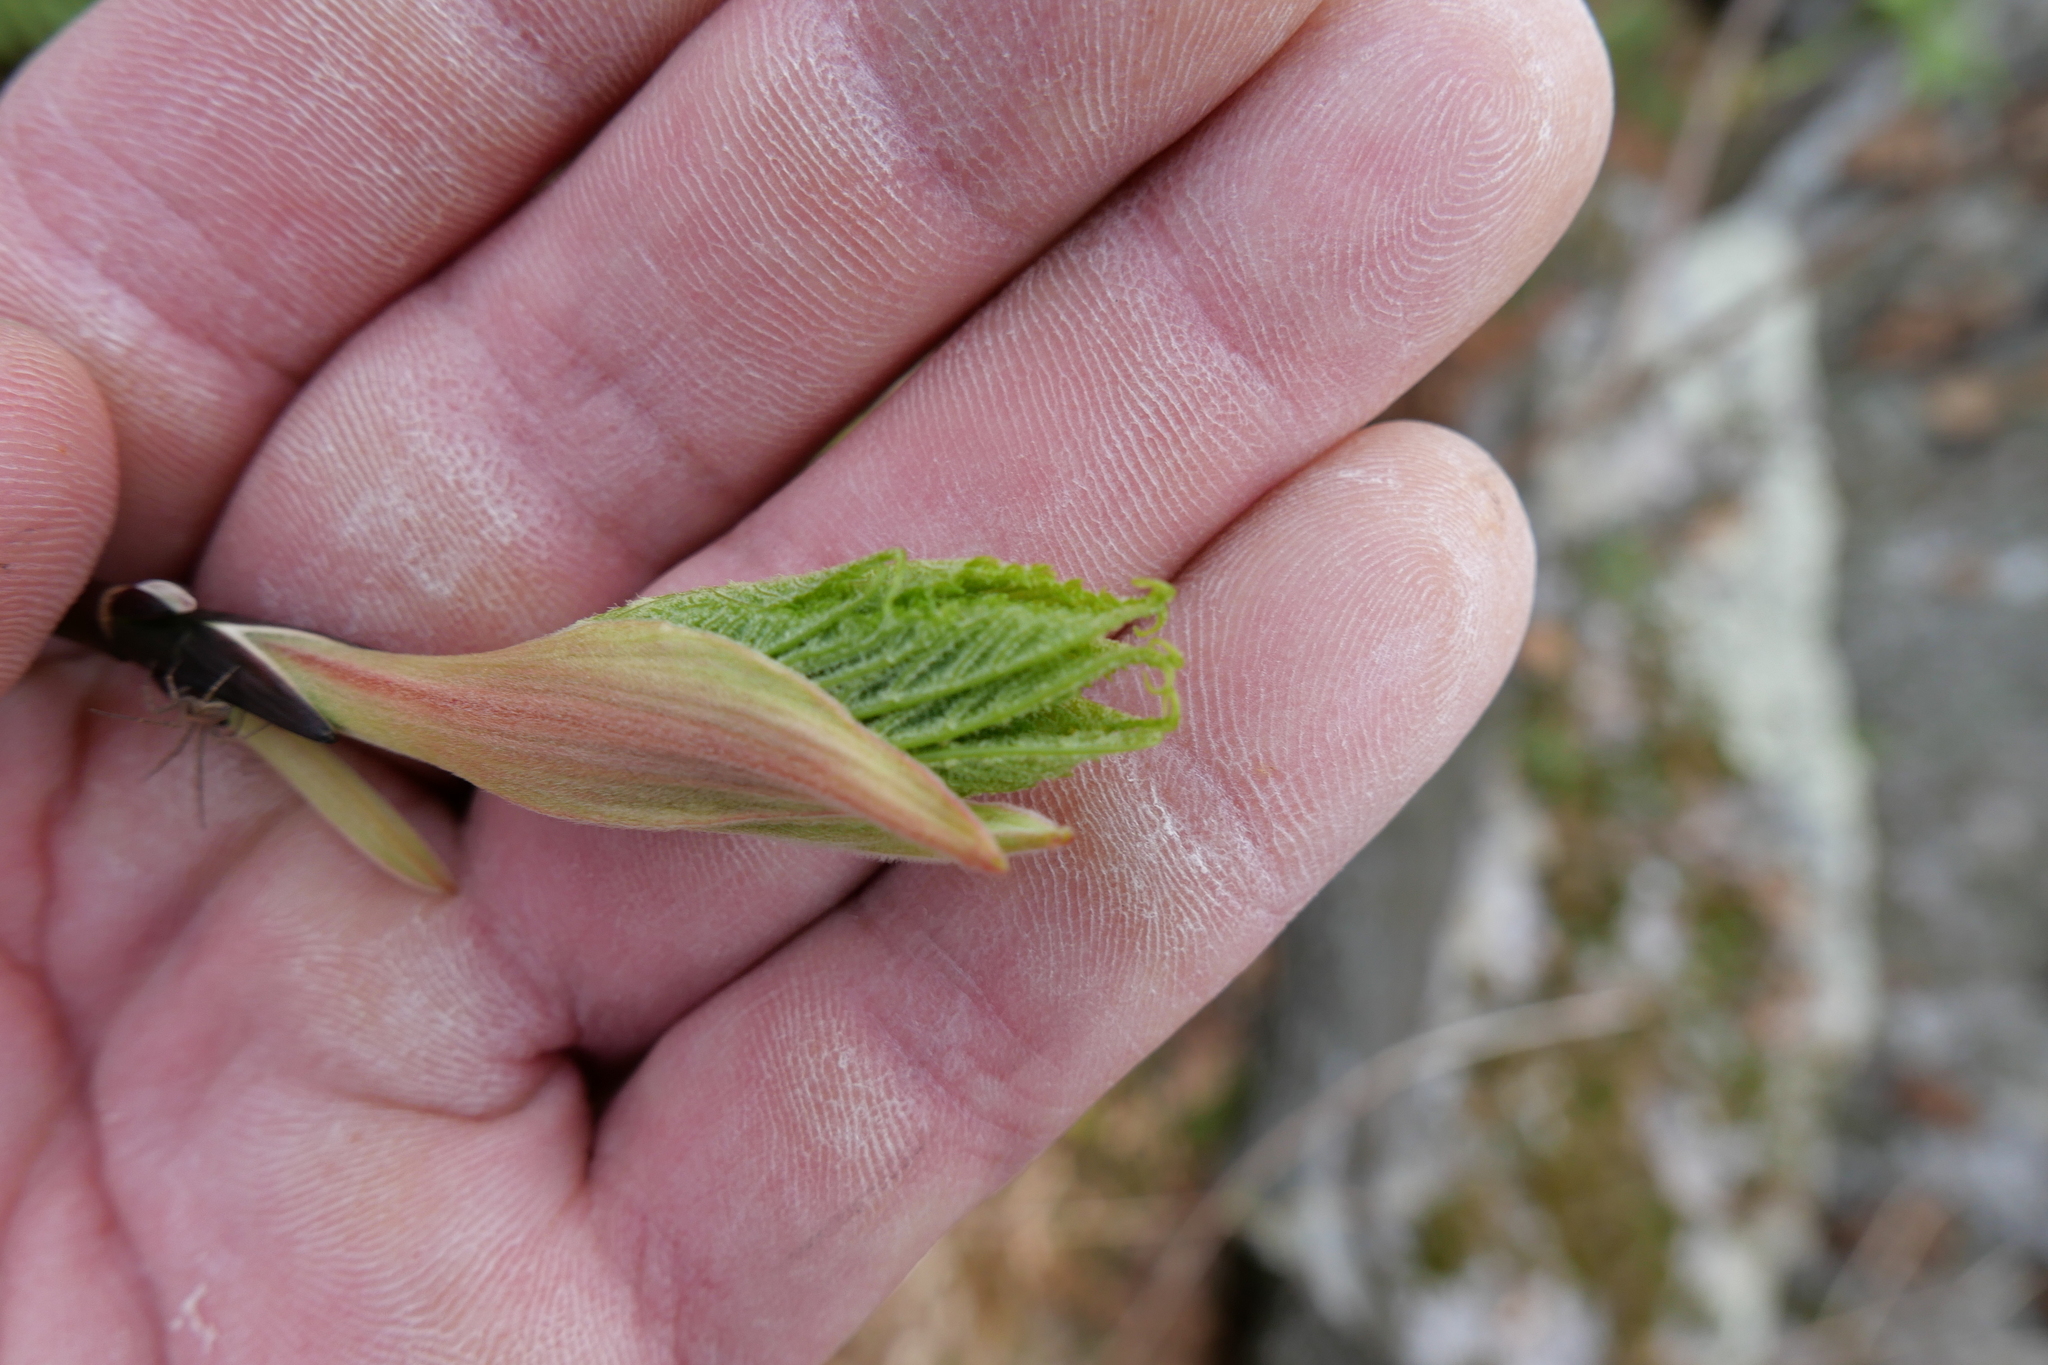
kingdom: Plantae
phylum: Tracheophyta
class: Magnoliopsida
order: Sapindales
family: Sapindaceae
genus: Acer
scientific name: Acer pensylvanicum
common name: Moosewood
